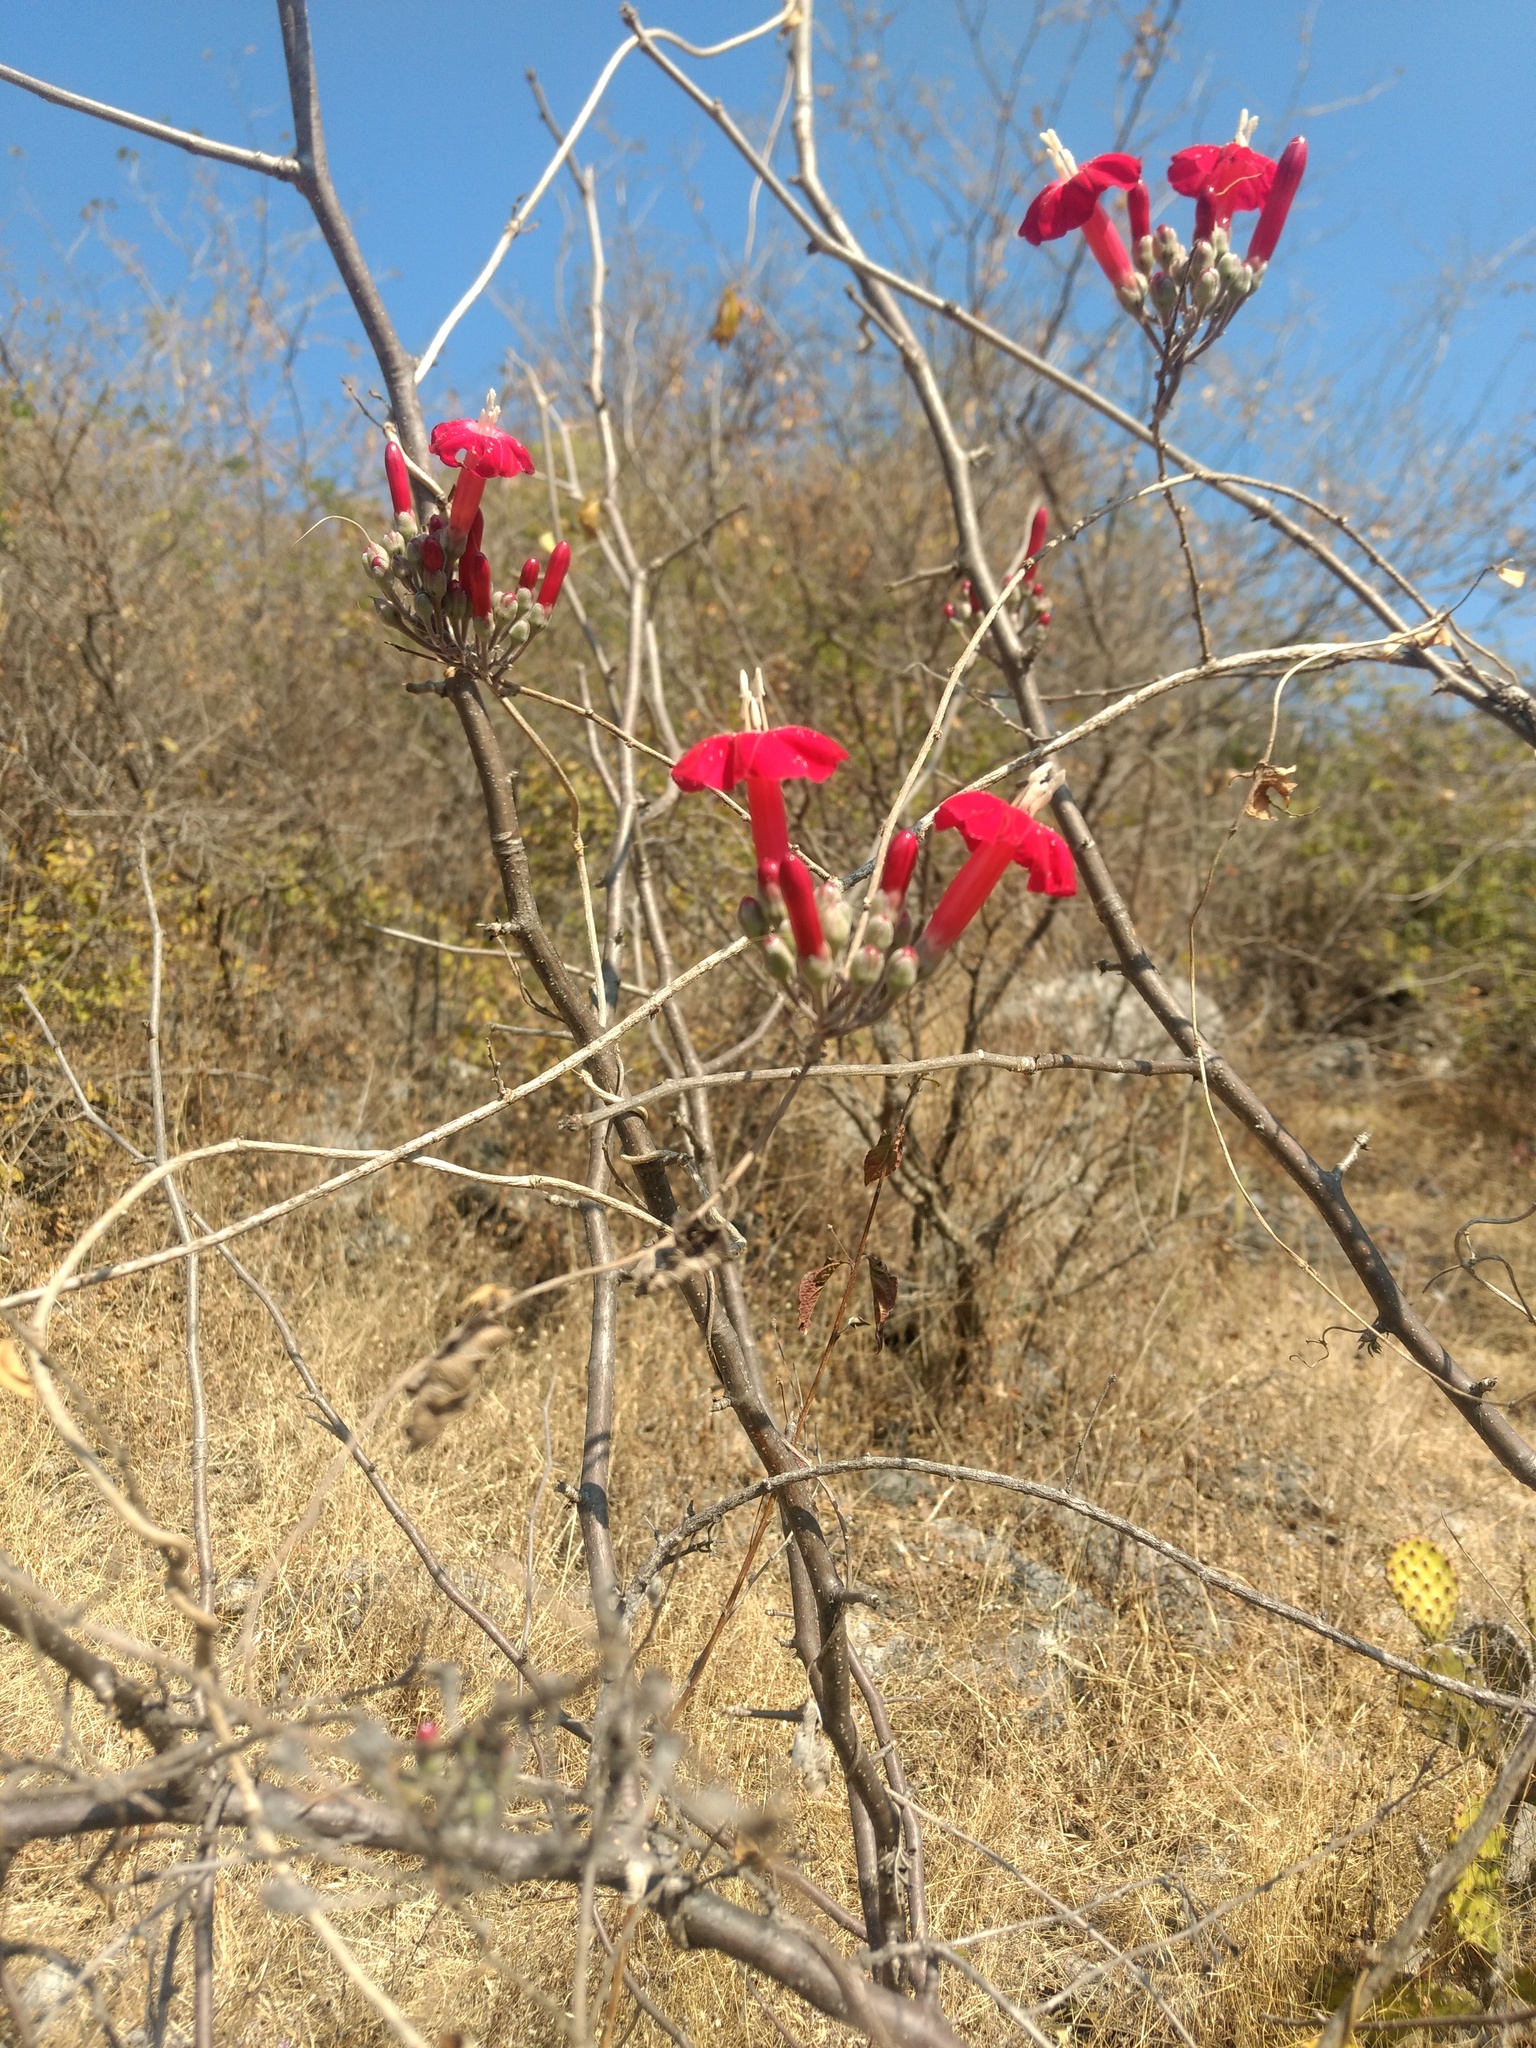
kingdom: Plantae
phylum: Tracheophyta
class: Magnoliopsida
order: Solanales
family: Convolvulaceae
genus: Ipomoea
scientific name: Ipomoea conzattii
